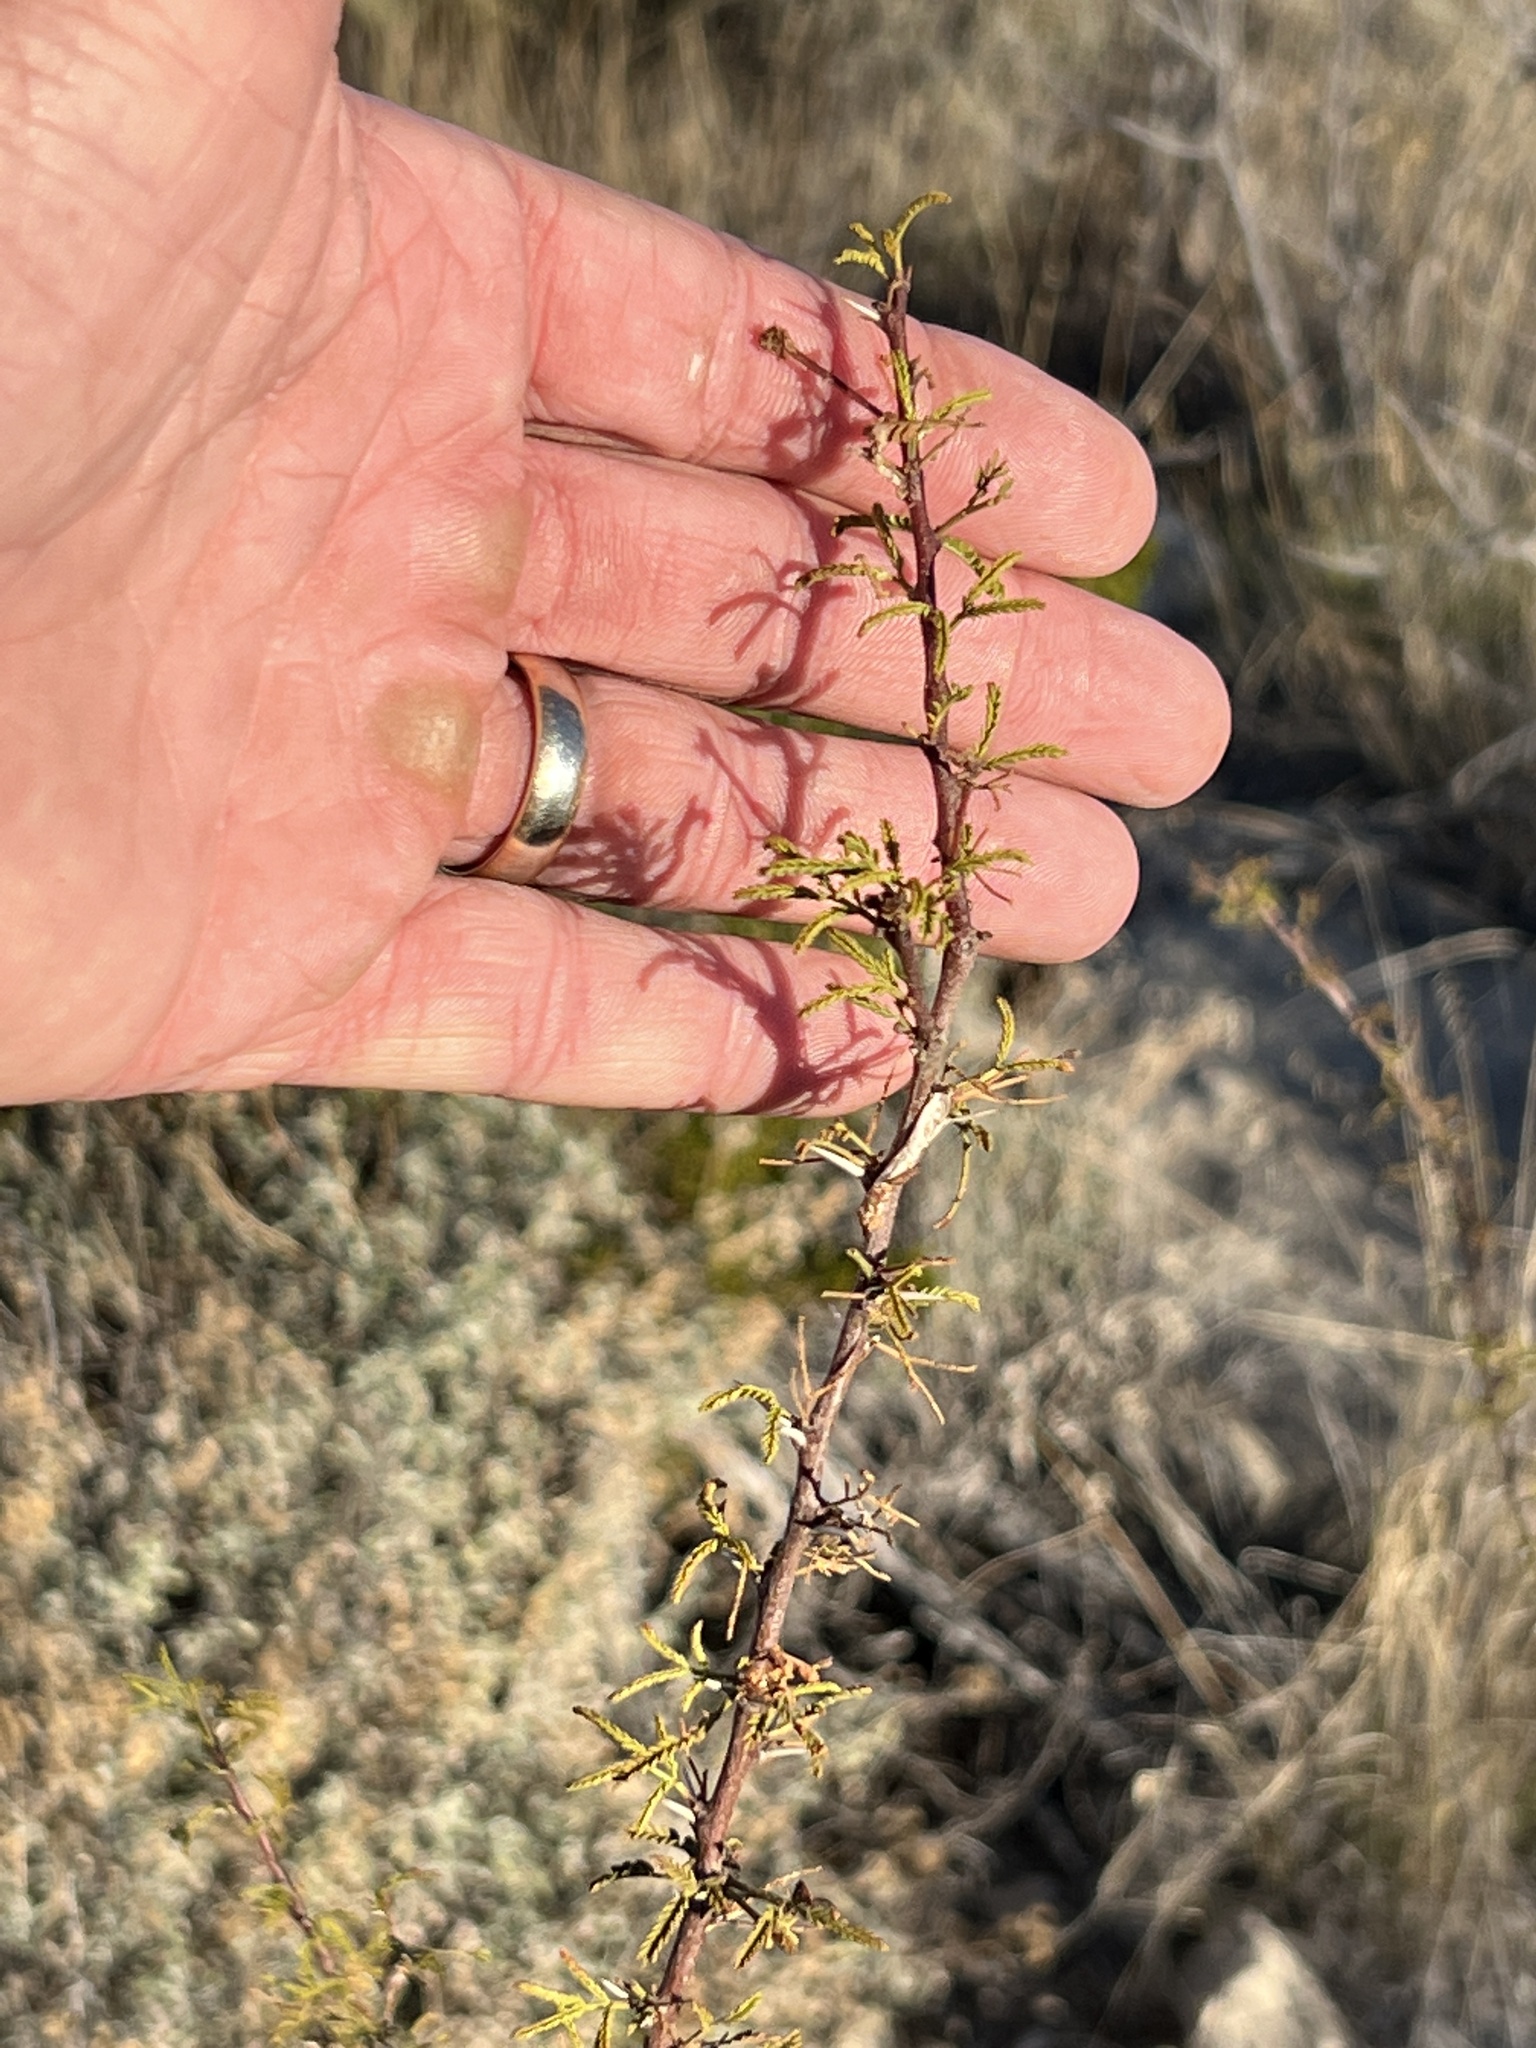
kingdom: Plantae
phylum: Tracheophyta
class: Magnoliopsida
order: Fabales
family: Fabaceae
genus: Vachellia
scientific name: Vachellia vernicosa
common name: Viscid acacia
